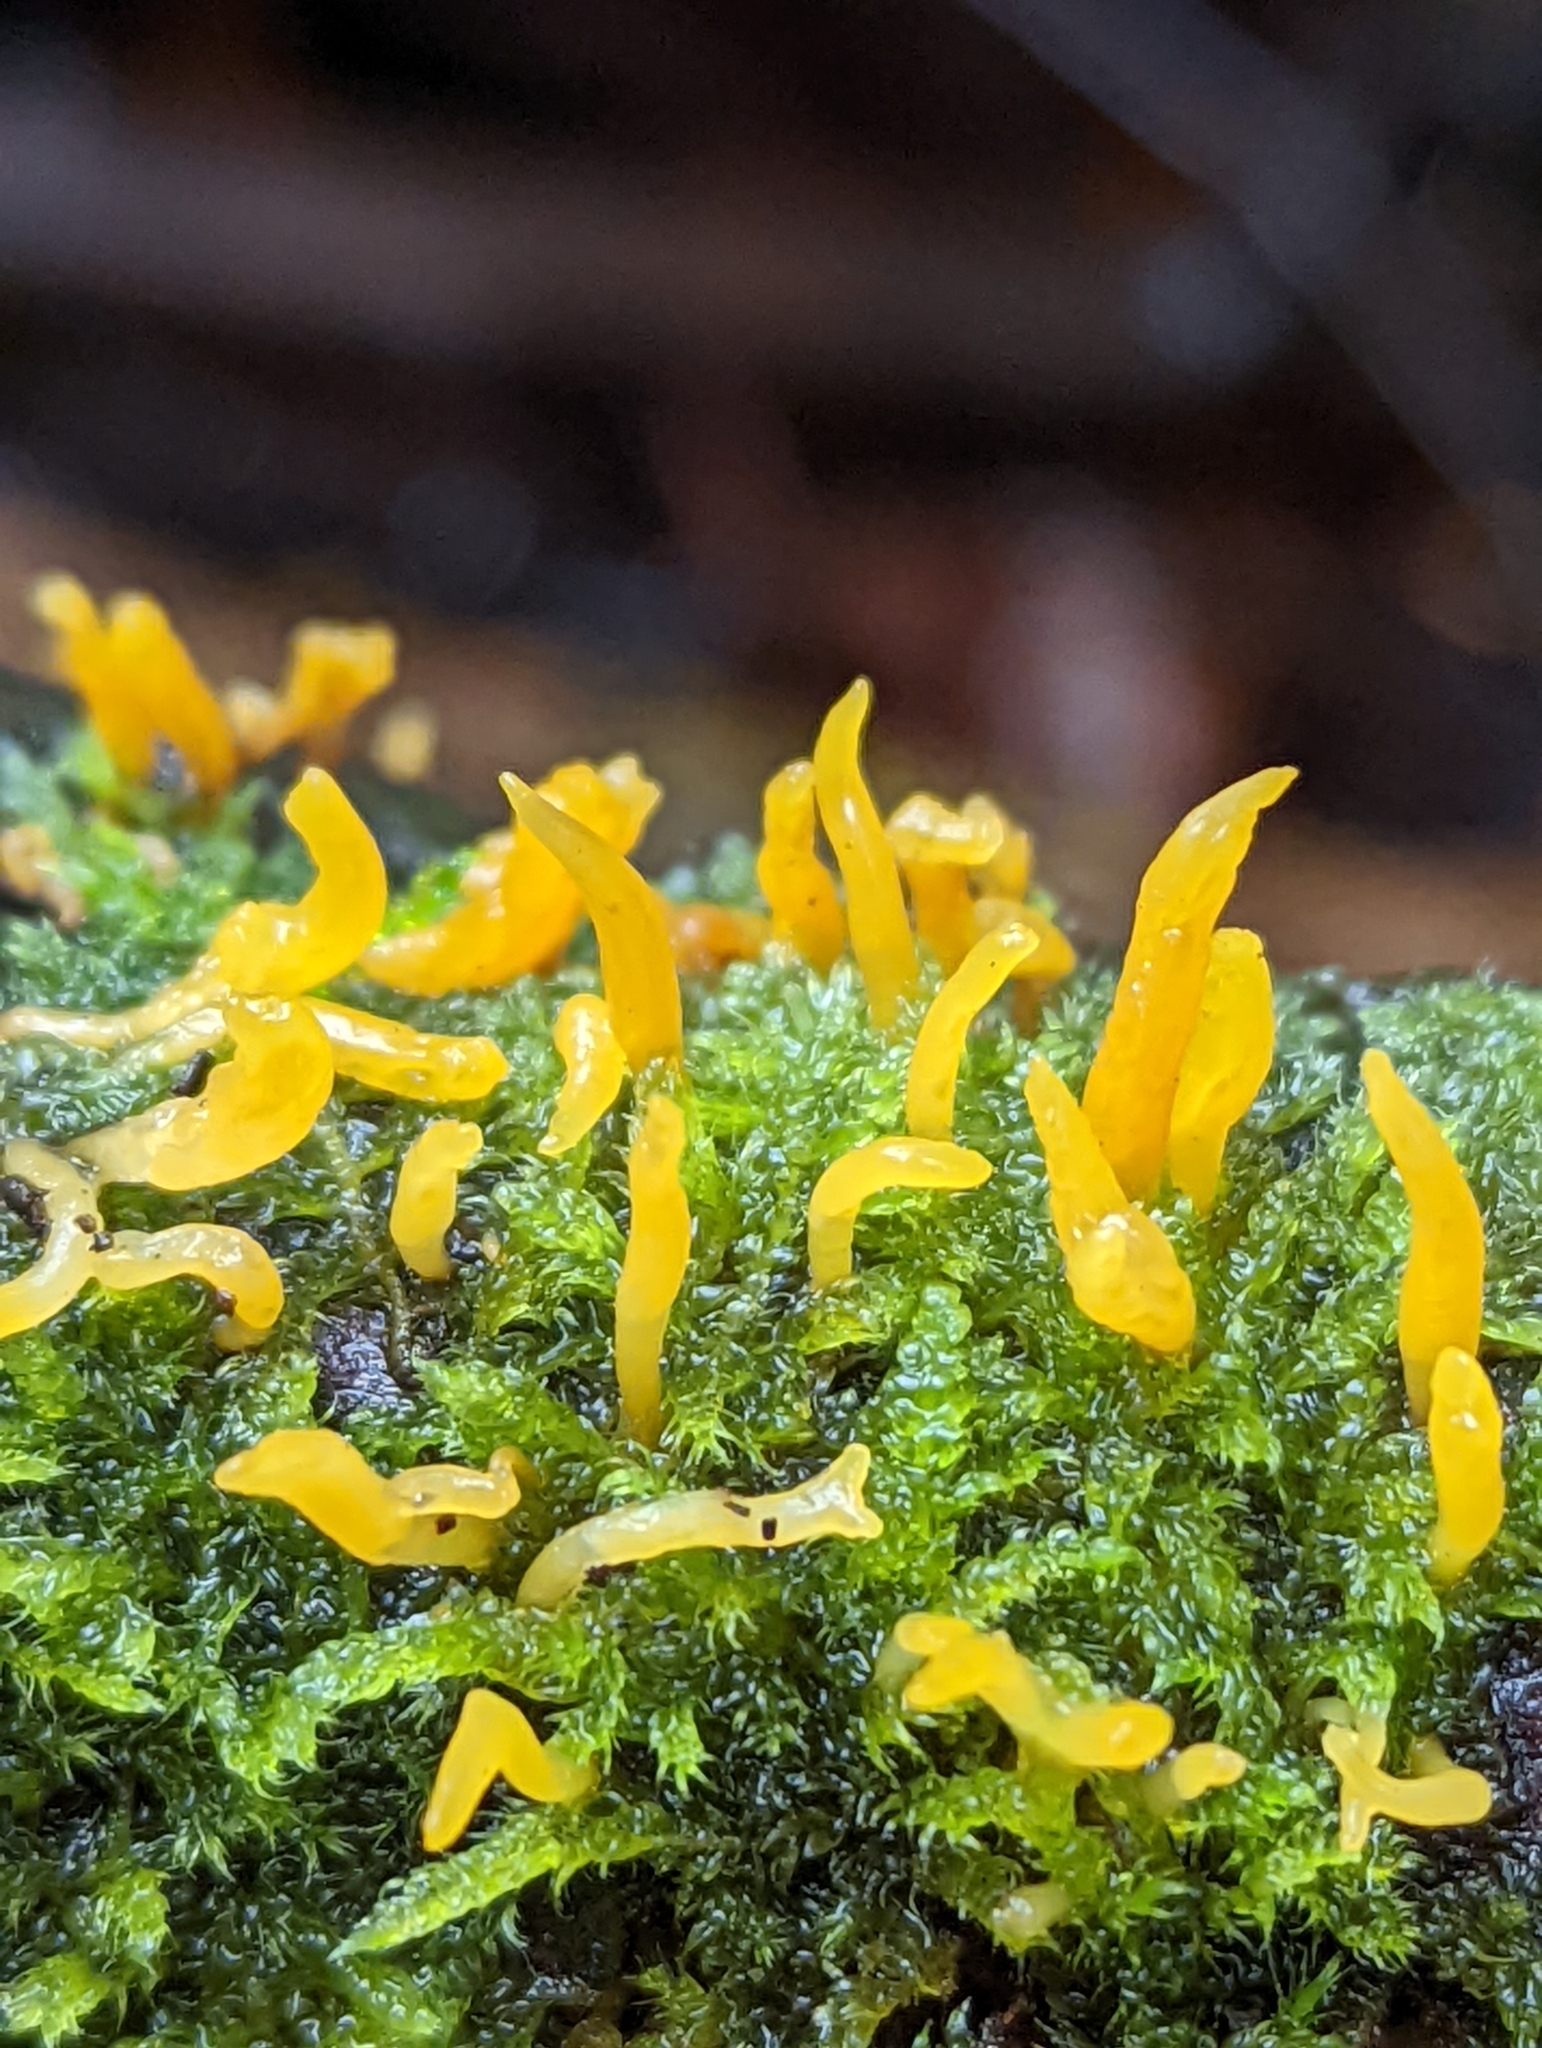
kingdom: Fungi
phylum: Basidiomycota
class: Dacrymycetes
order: Dacrymycetales
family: Dacrymycetaceae
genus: Calocera
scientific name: Calocera cornea
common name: Small stagshorn
